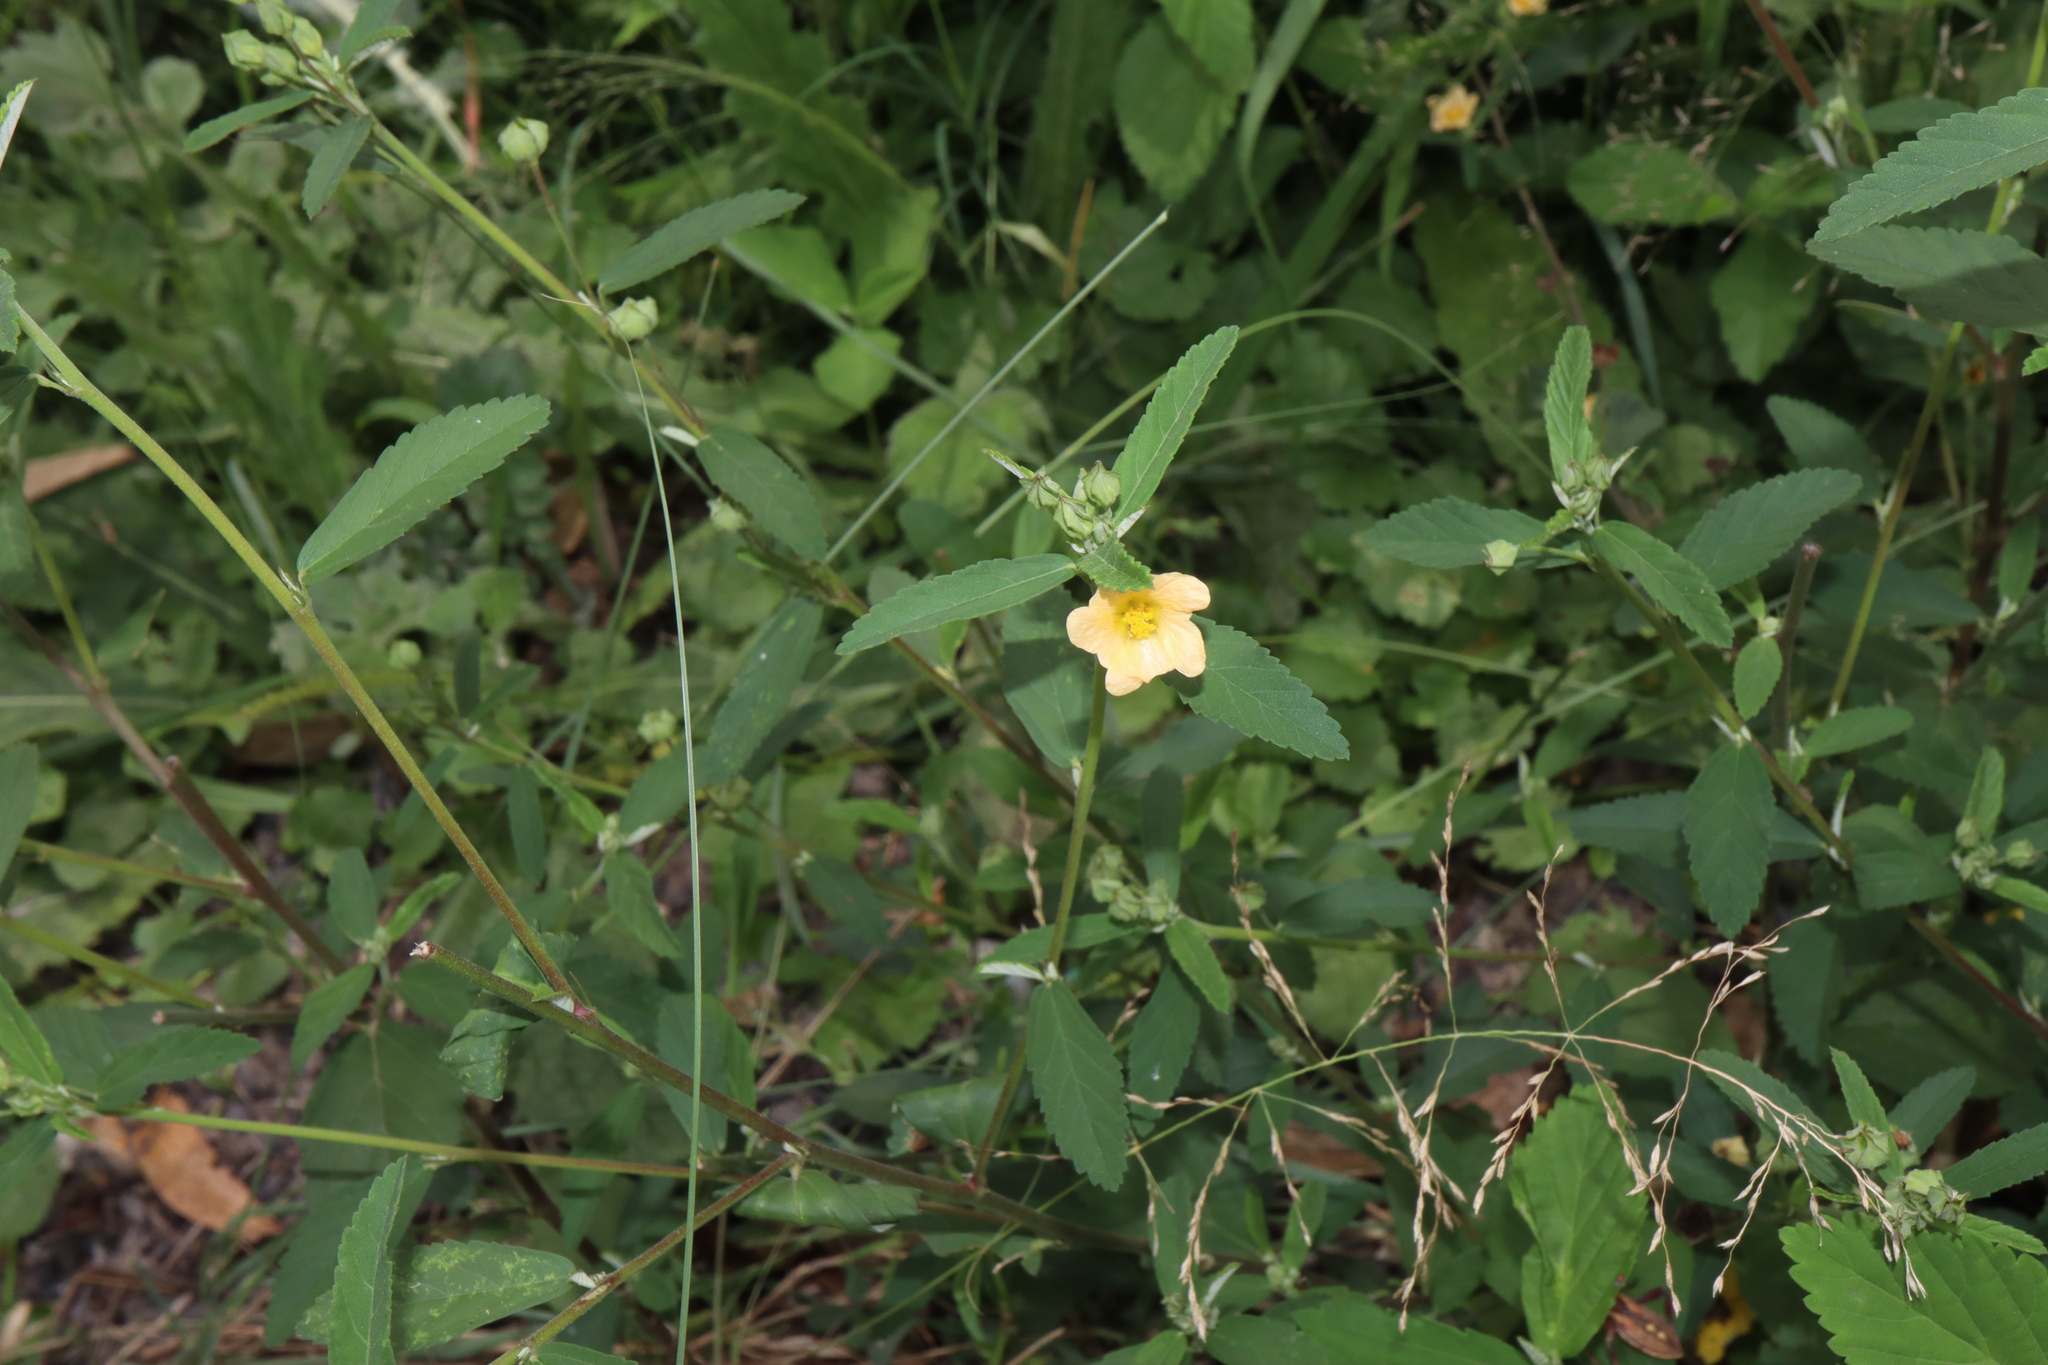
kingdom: Plantae
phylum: Tracheophyta
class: Magnoliopsida
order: Malvales
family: Malvaceae
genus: Sida
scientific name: Sida rhombifolia
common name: Queensland-hemp
